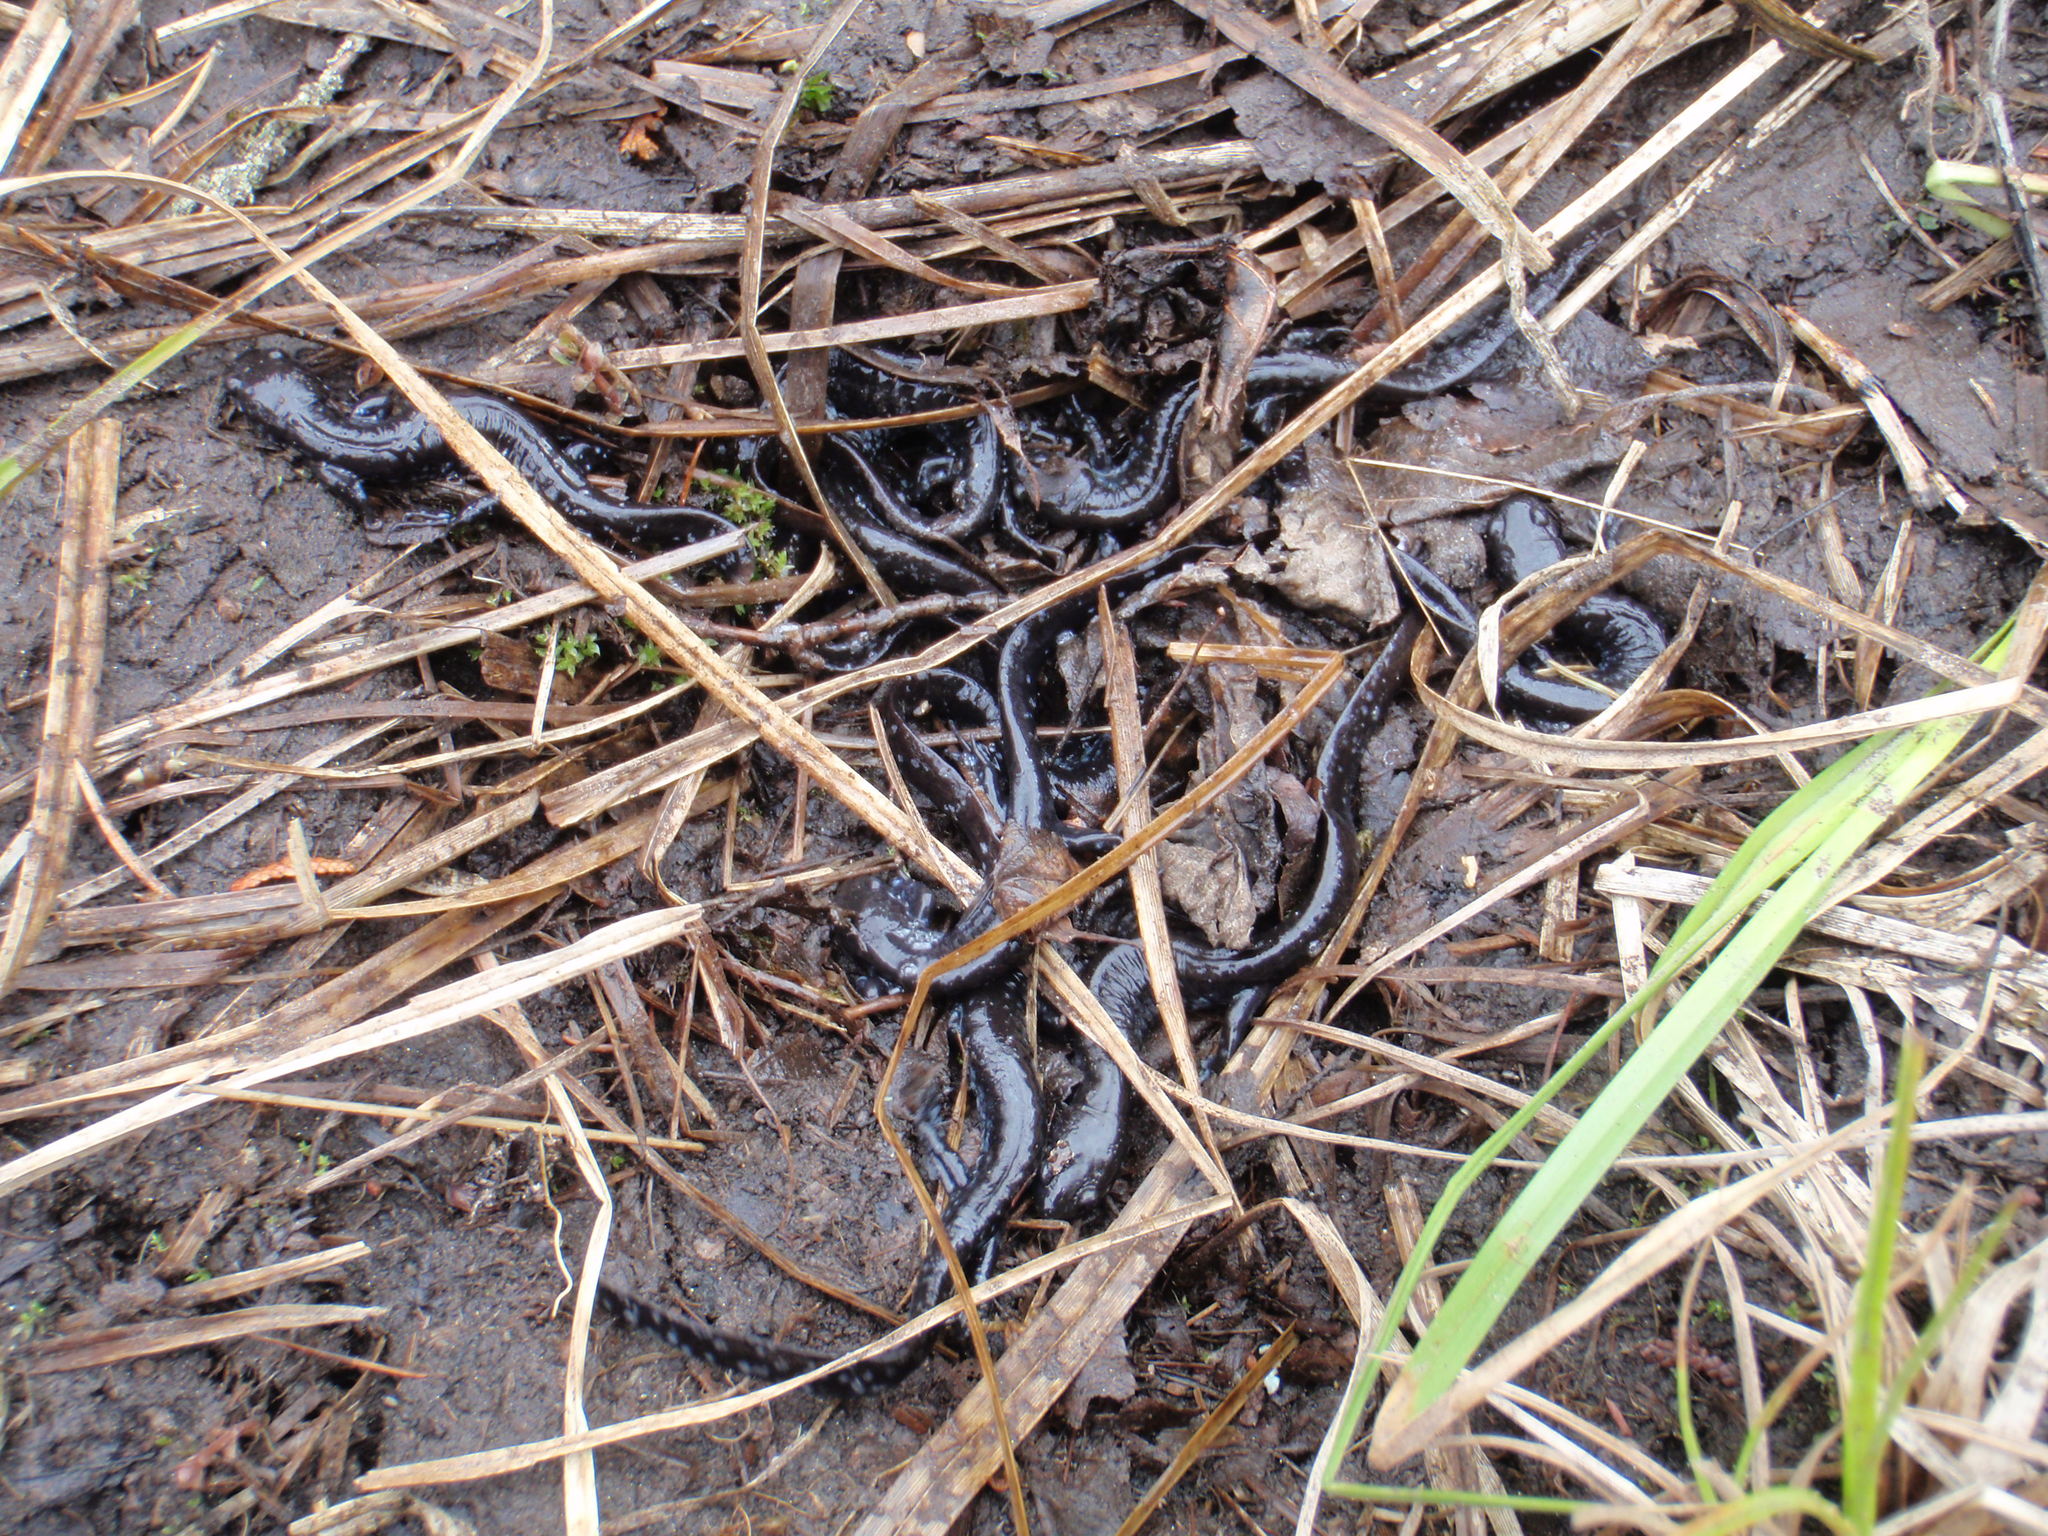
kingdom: Animalia
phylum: Chordata
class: Amphibia
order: Caudata
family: Ambystomatidae
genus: Ambystoma
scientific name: Ambystoma laterale
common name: Blue-spotted salamander
